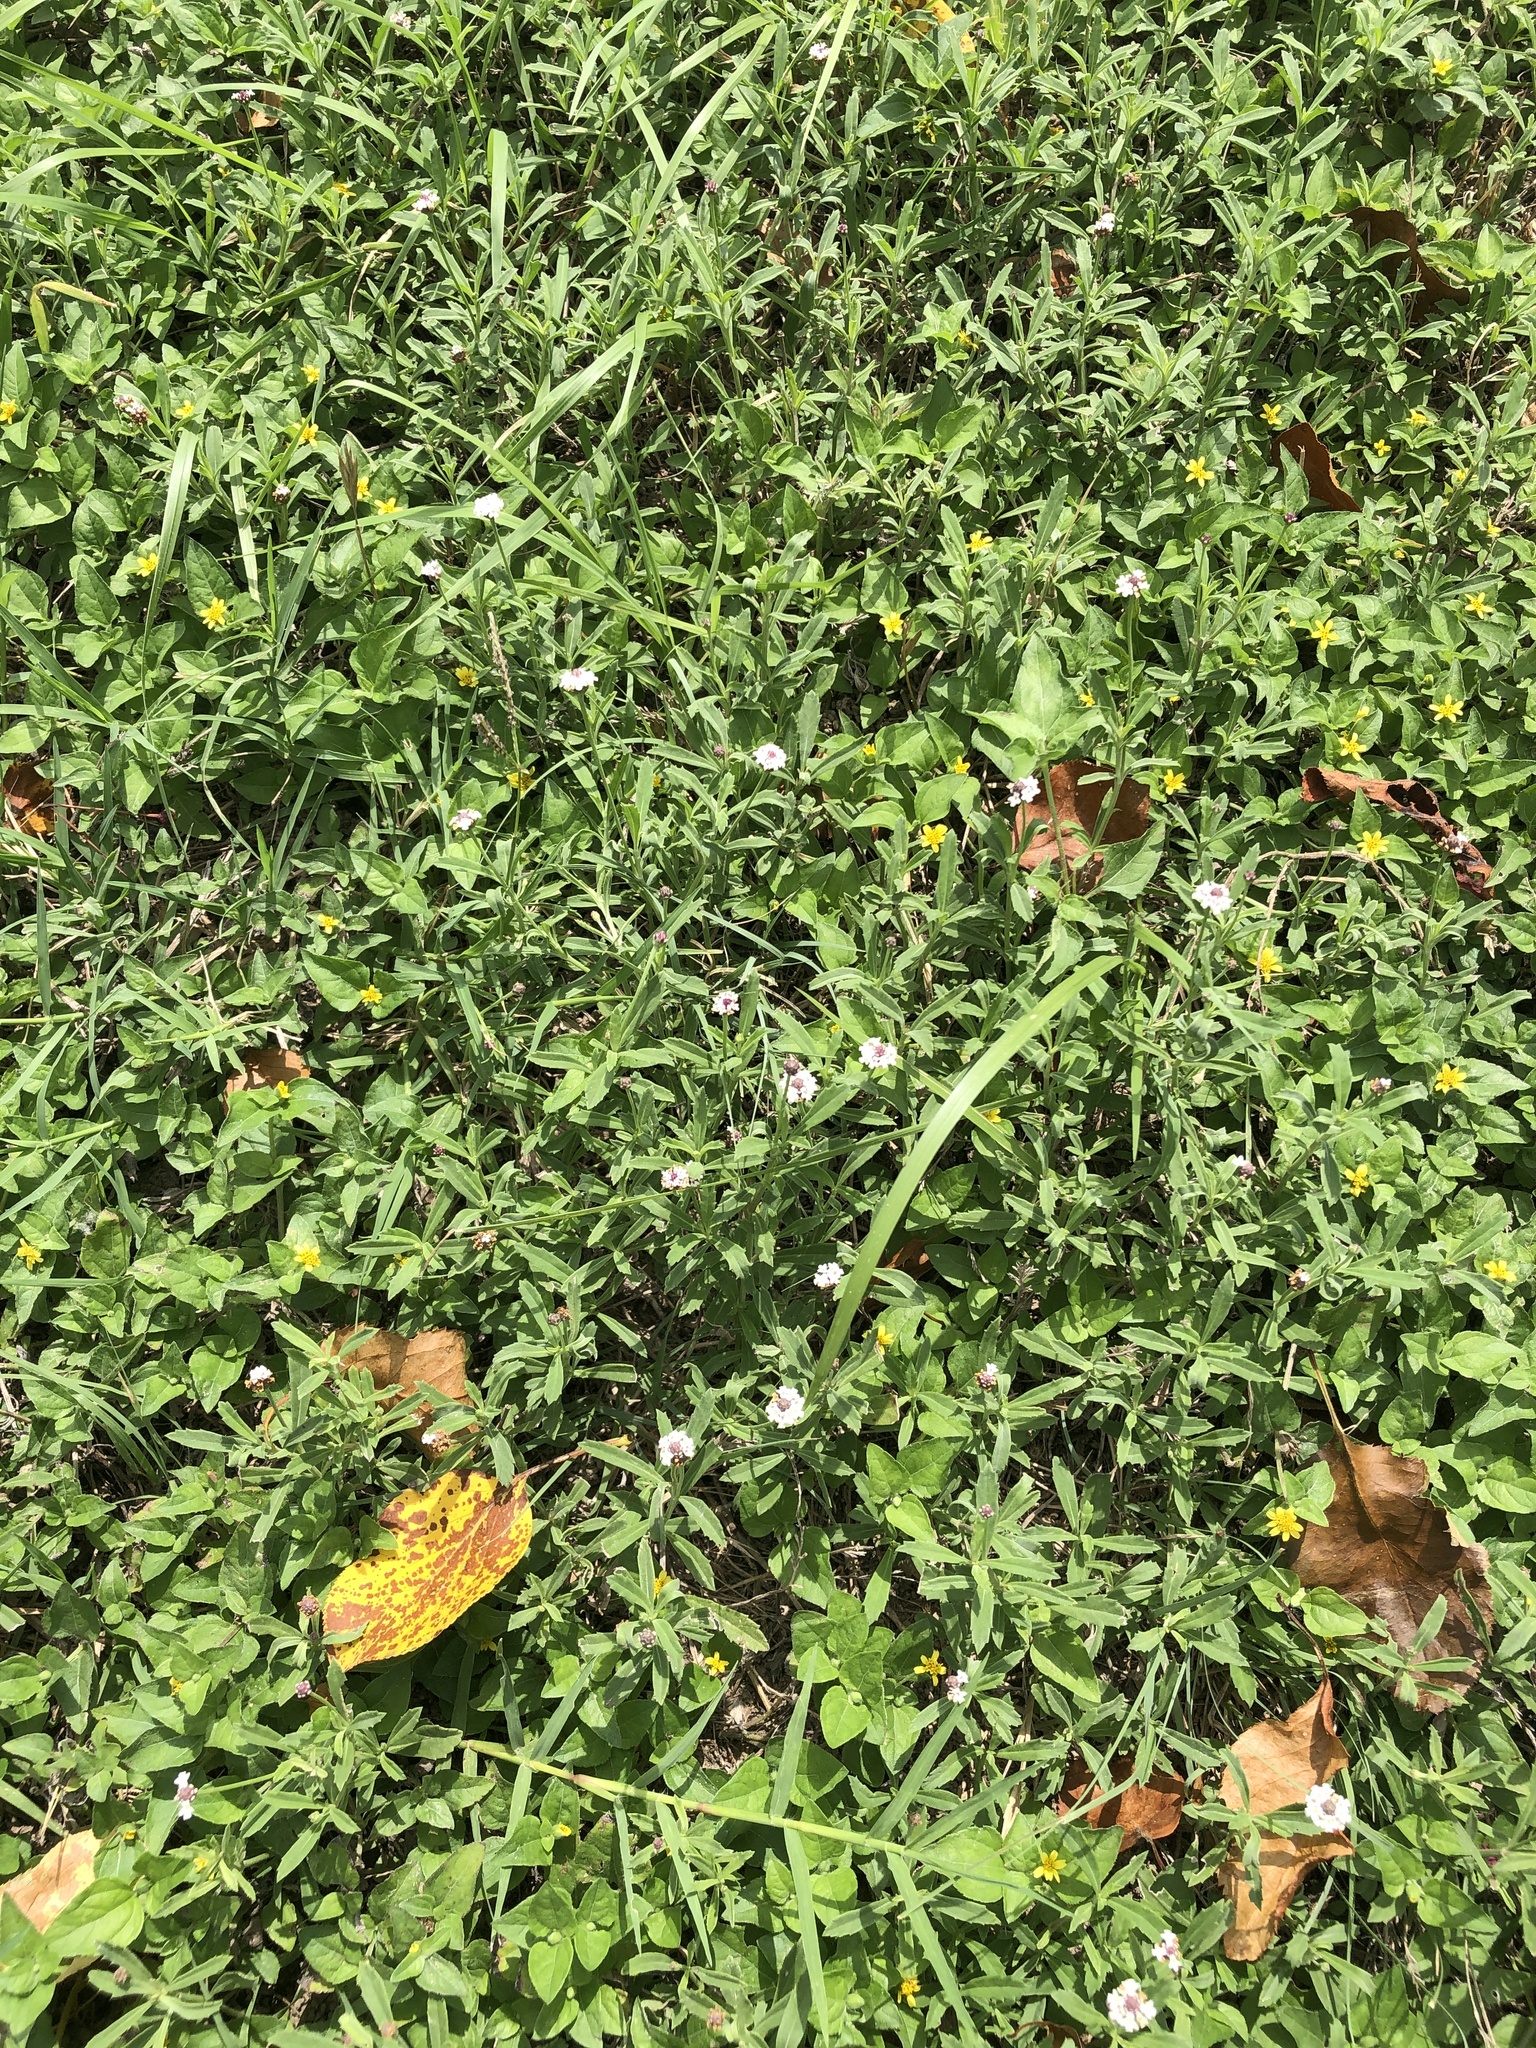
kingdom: Plantae
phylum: Tracheophyta
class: Magnoliopsida
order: Lamiales
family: Verbenaceae
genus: Phyla
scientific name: Phyla nodiflora
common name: Frogfruit
